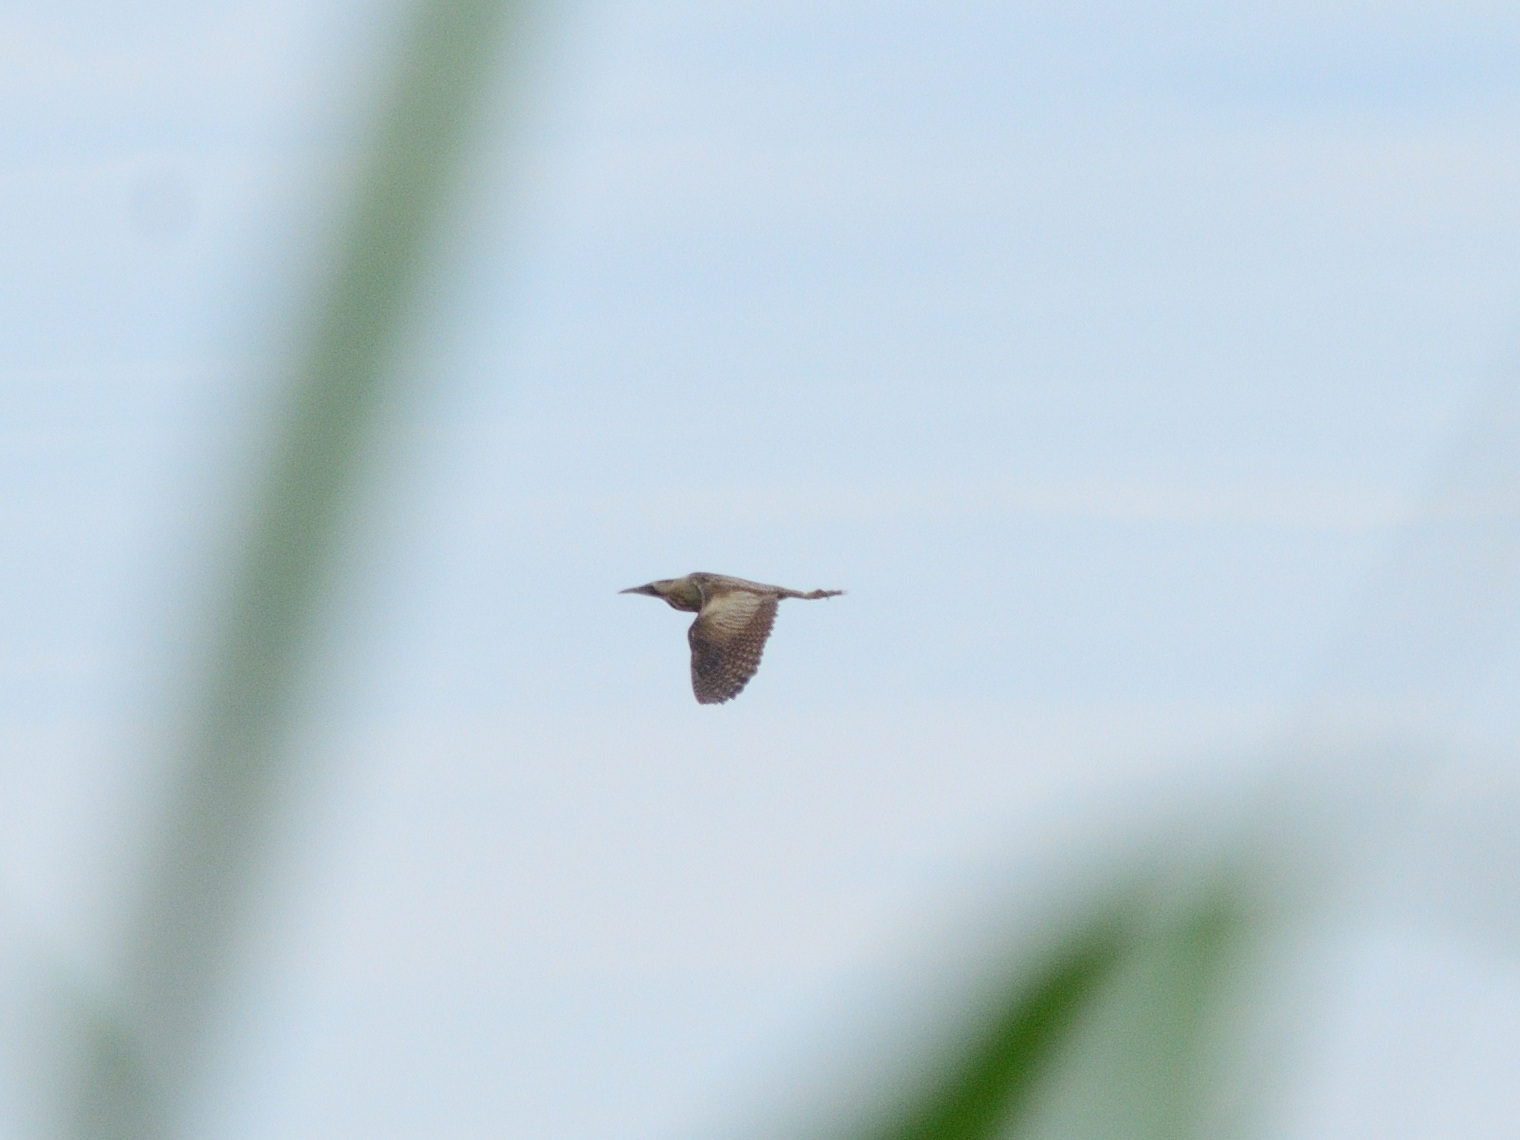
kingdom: Animalia
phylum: Chordata
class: Aves
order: Pelecaniformes
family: Ardeidae
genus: Botaurus
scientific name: Botaurus stellaris
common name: Eurasian bittern
